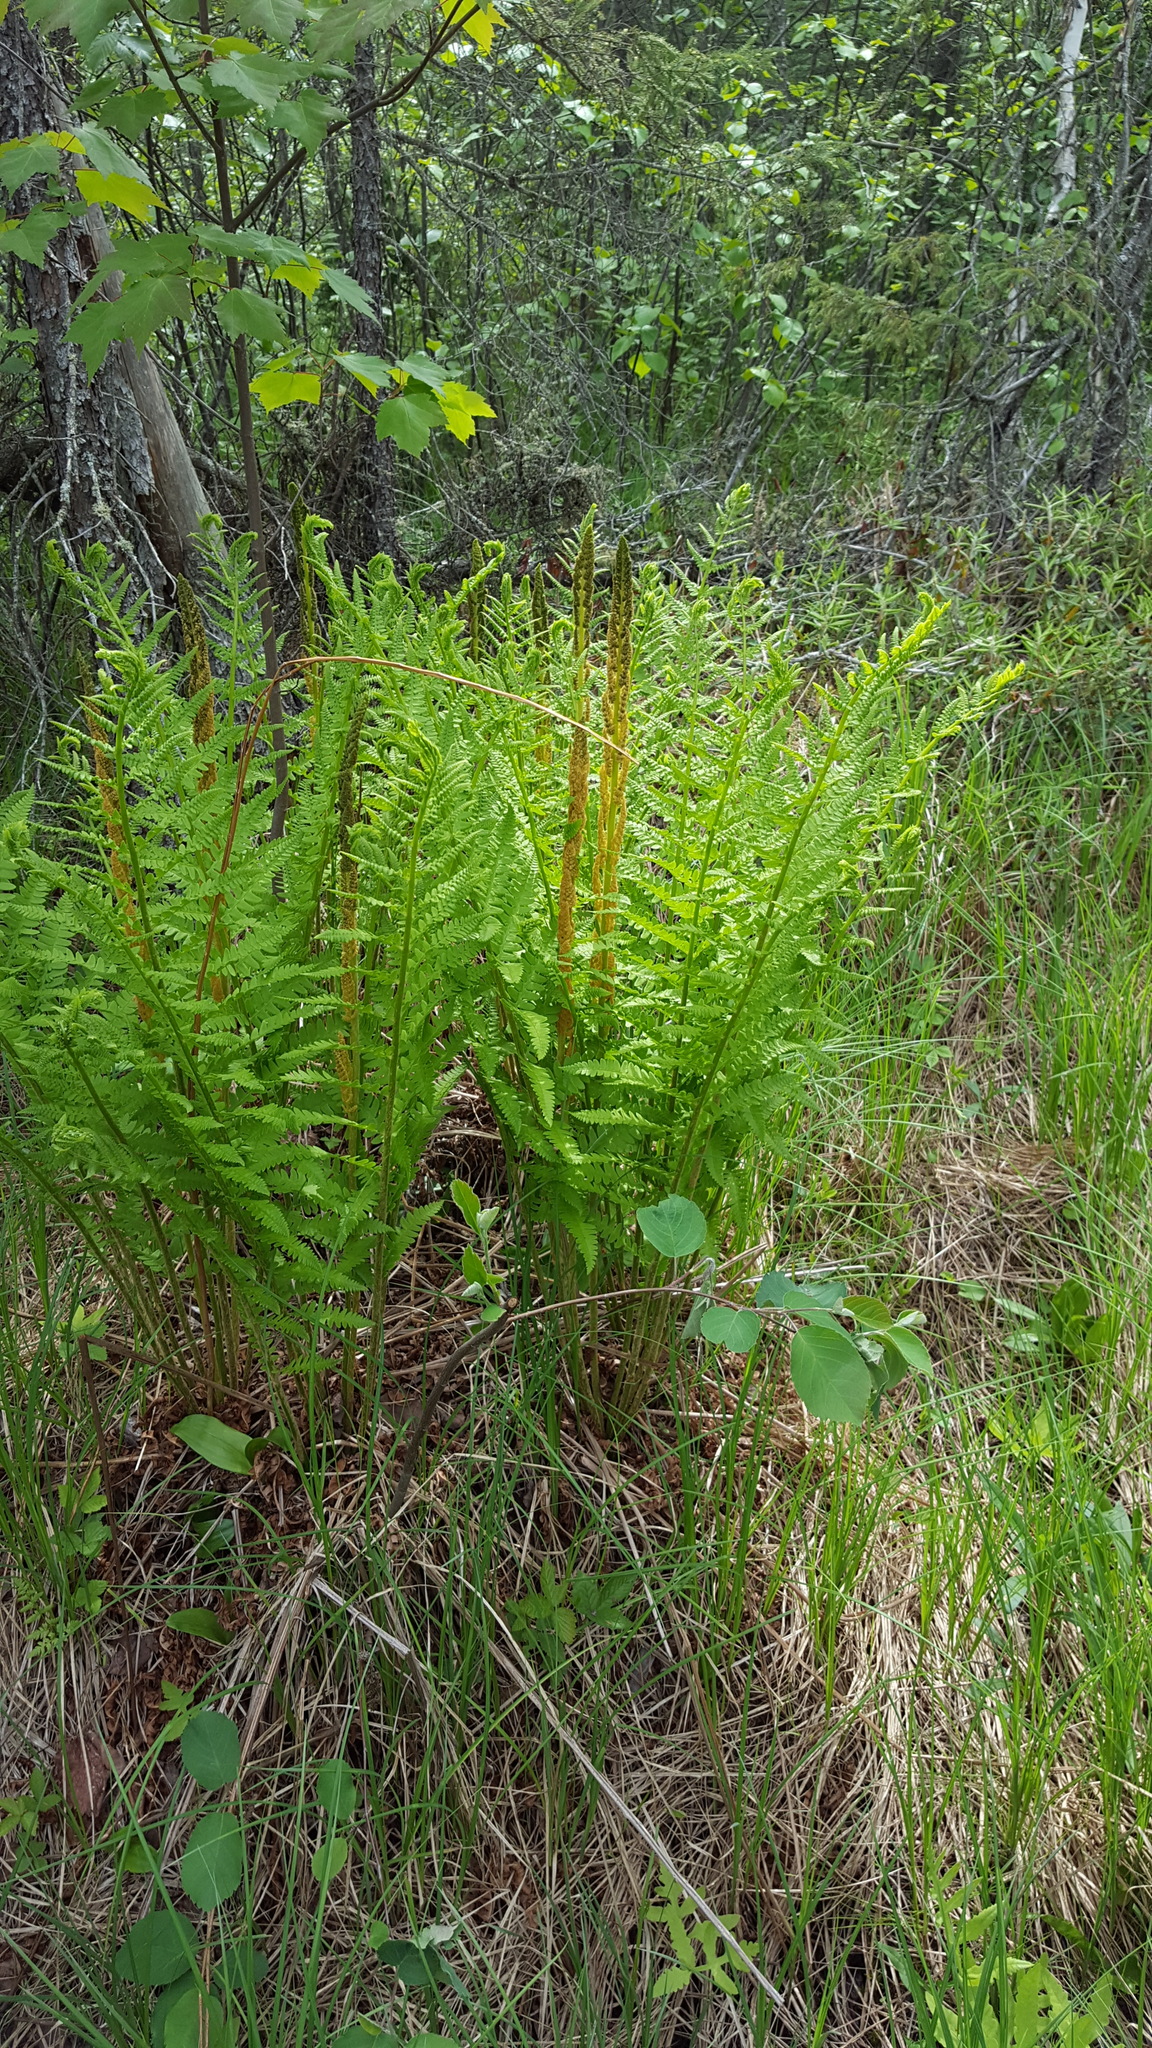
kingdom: Plantae
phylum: Tracheophyta
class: Polypodiopsida
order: Osmundales
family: Osmundaceae
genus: Osmundastrum
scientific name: Osmundastrum cinnamomeum
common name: Cinnamon fern
